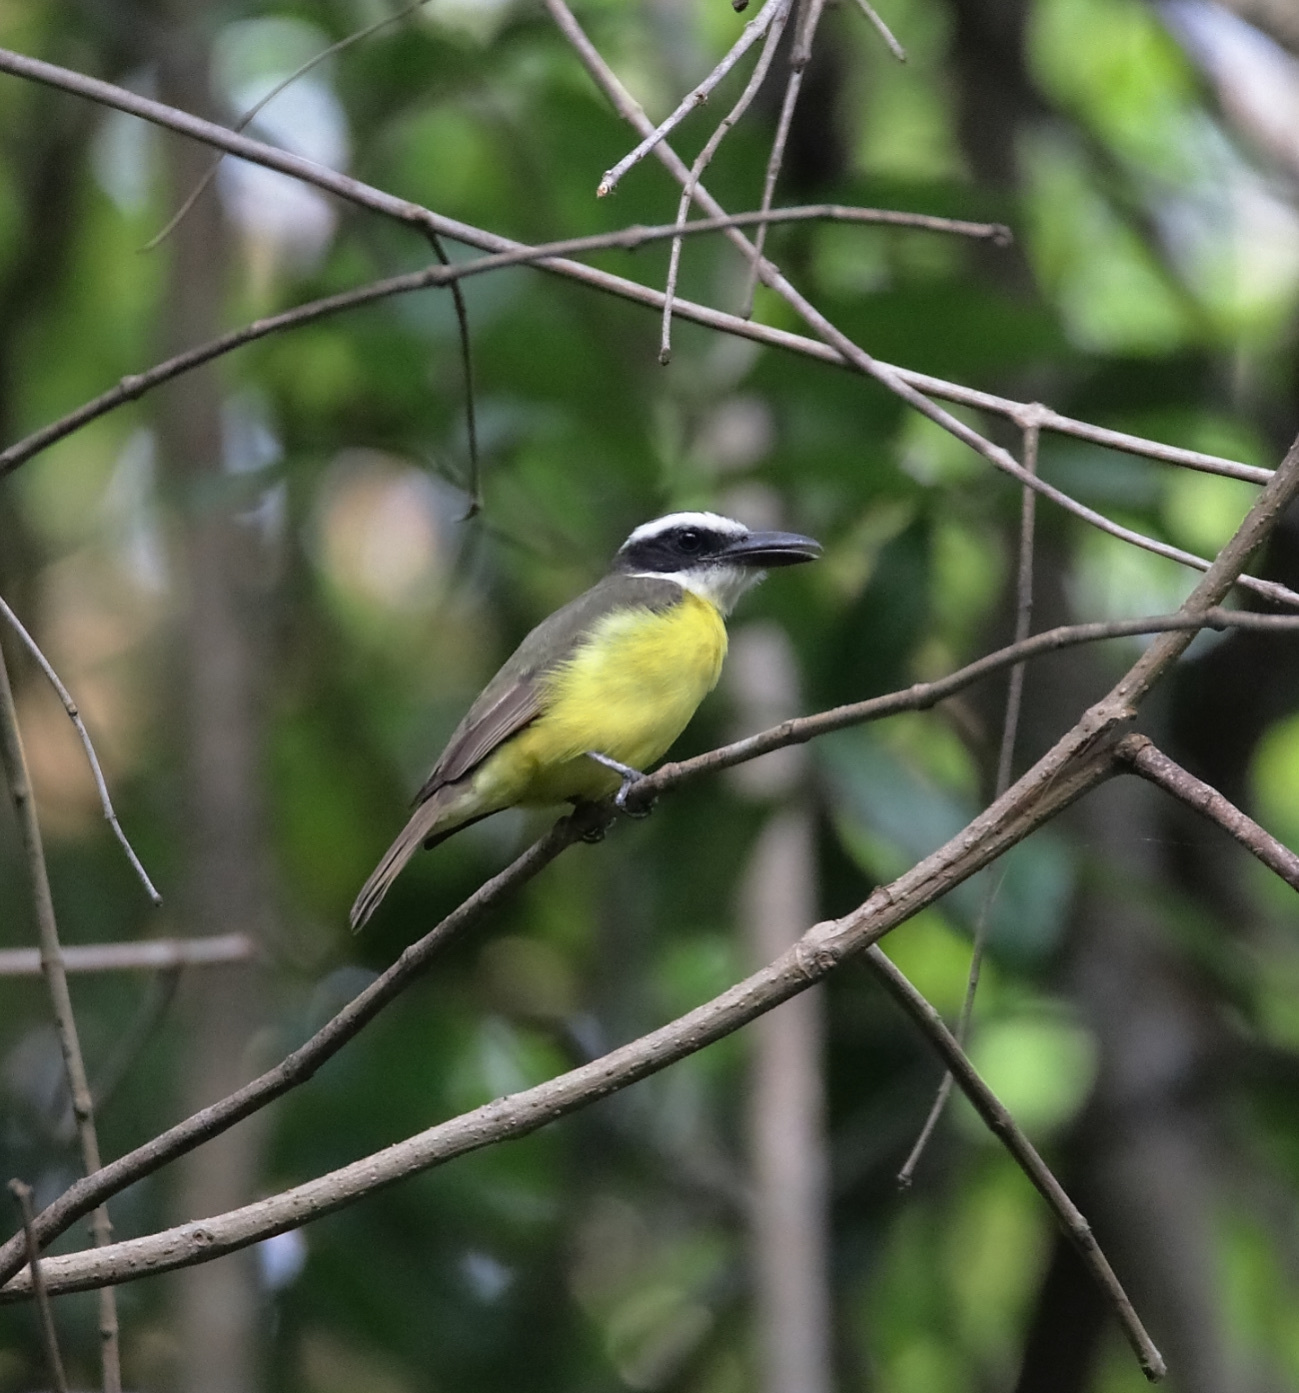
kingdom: Animalia
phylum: Chordata
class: Aves
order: Passeriformes
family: Tyrannidae
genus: Megarynchus
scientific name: Megarynchus pitangua
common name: Boat-billed flycatcher
